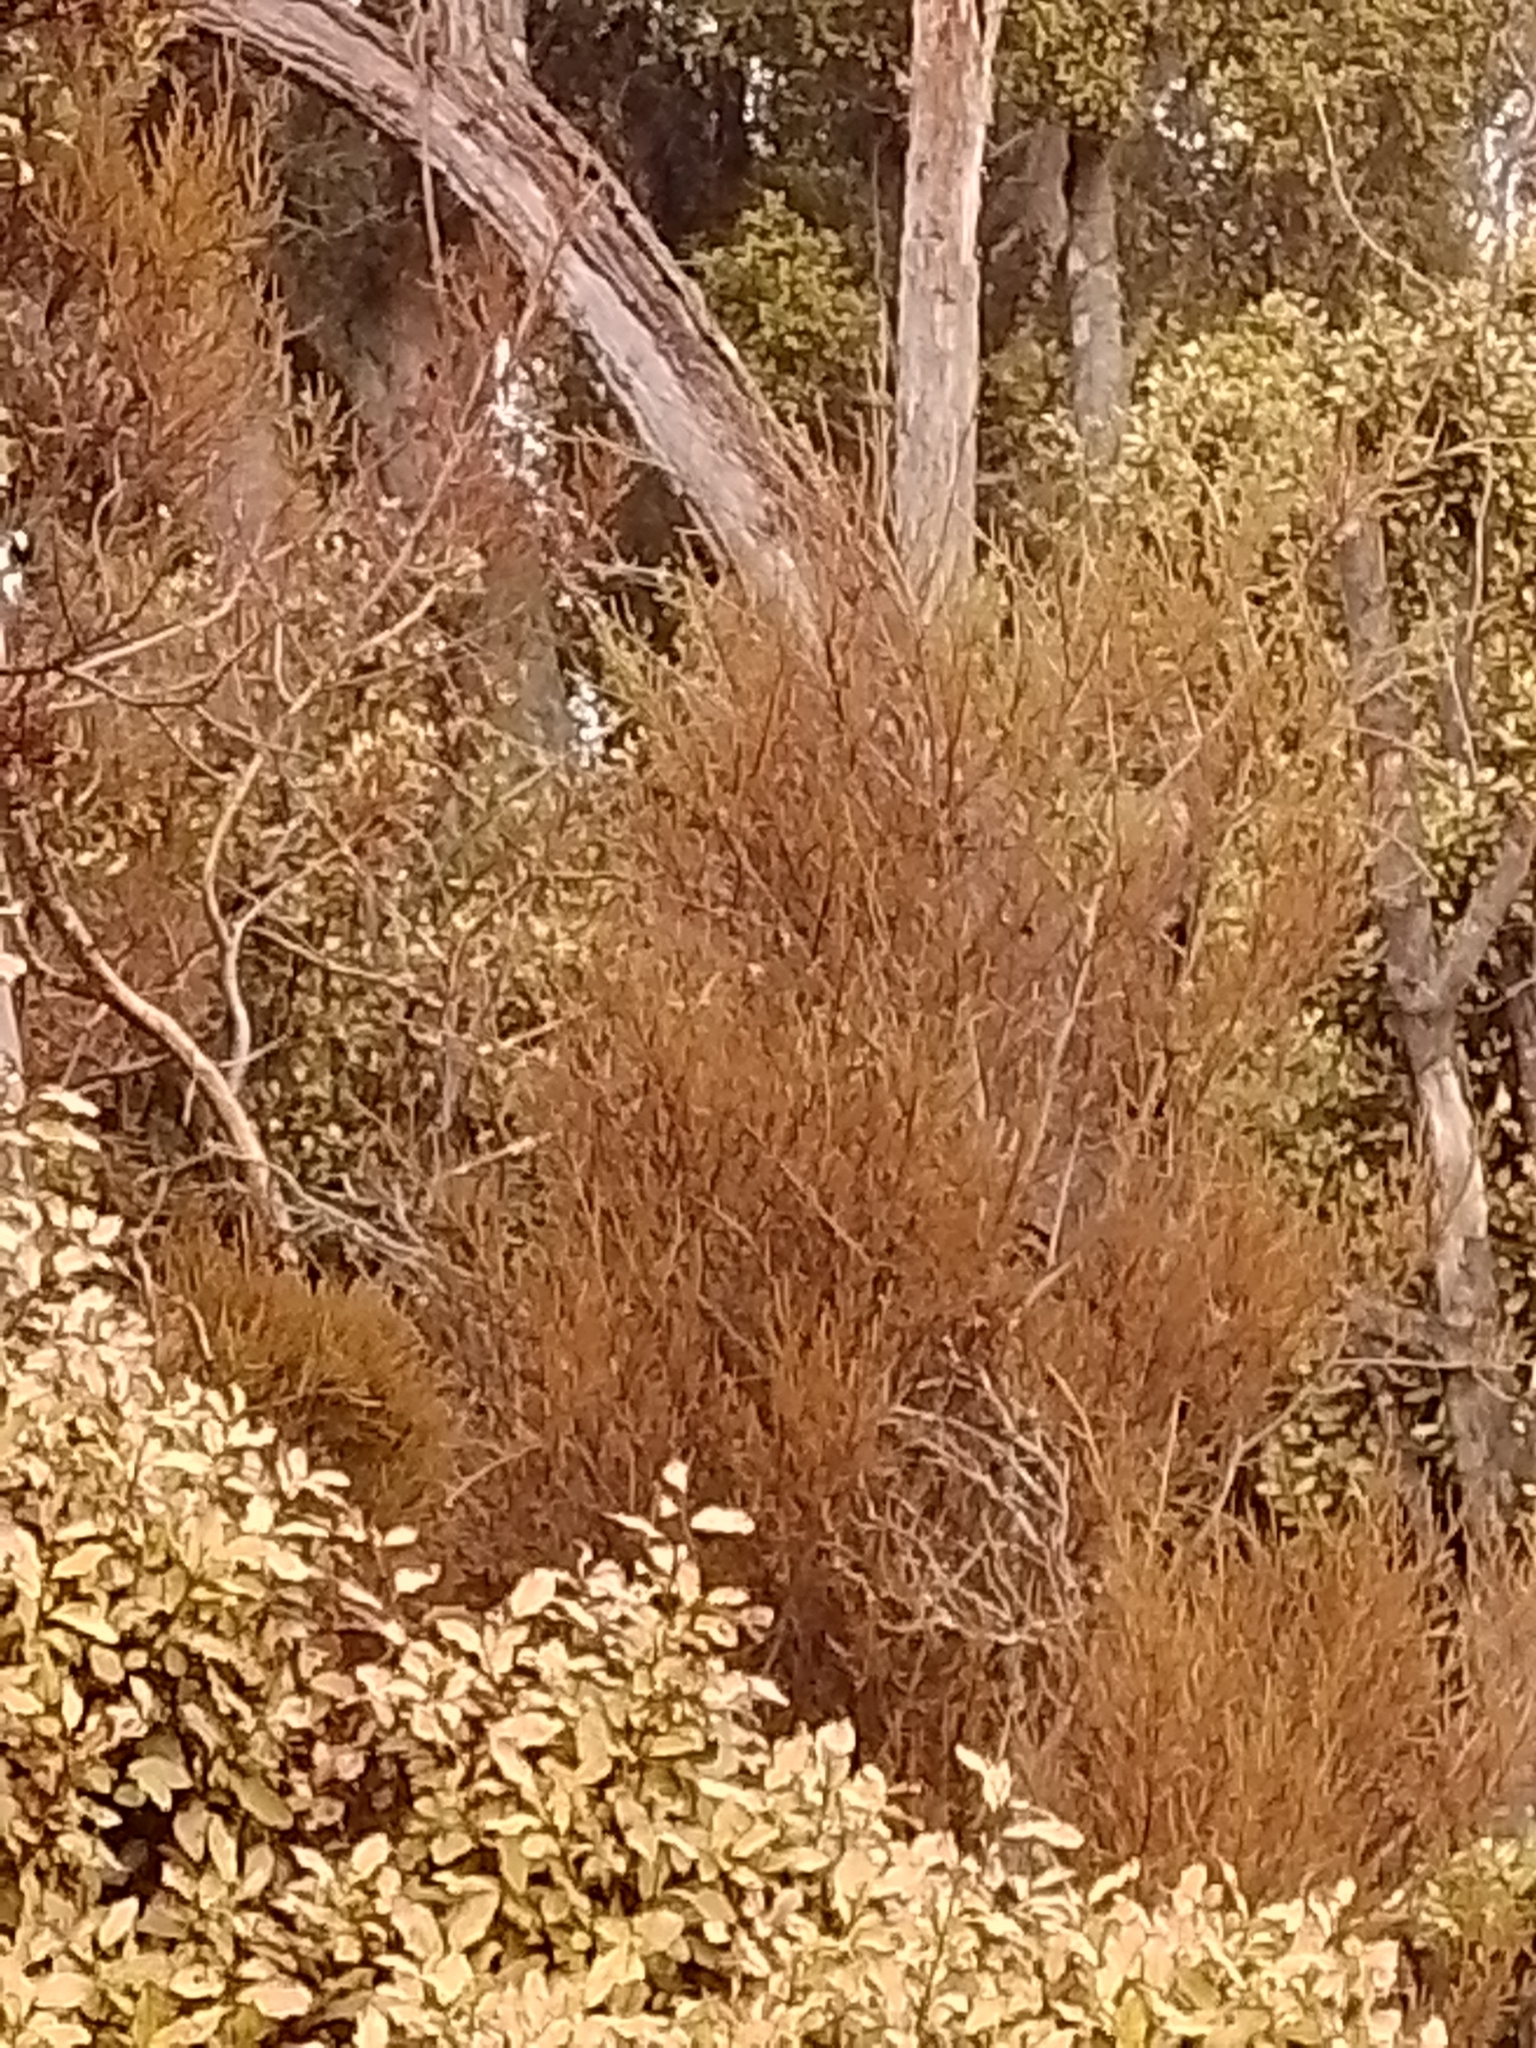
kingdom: Plantae
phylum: Tracheophyta
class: Pinopsida
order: Pinales
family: Podocarpaceae
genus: Dacrycarpus
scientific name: Dacrycarpus dacrydioides
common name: White pine
